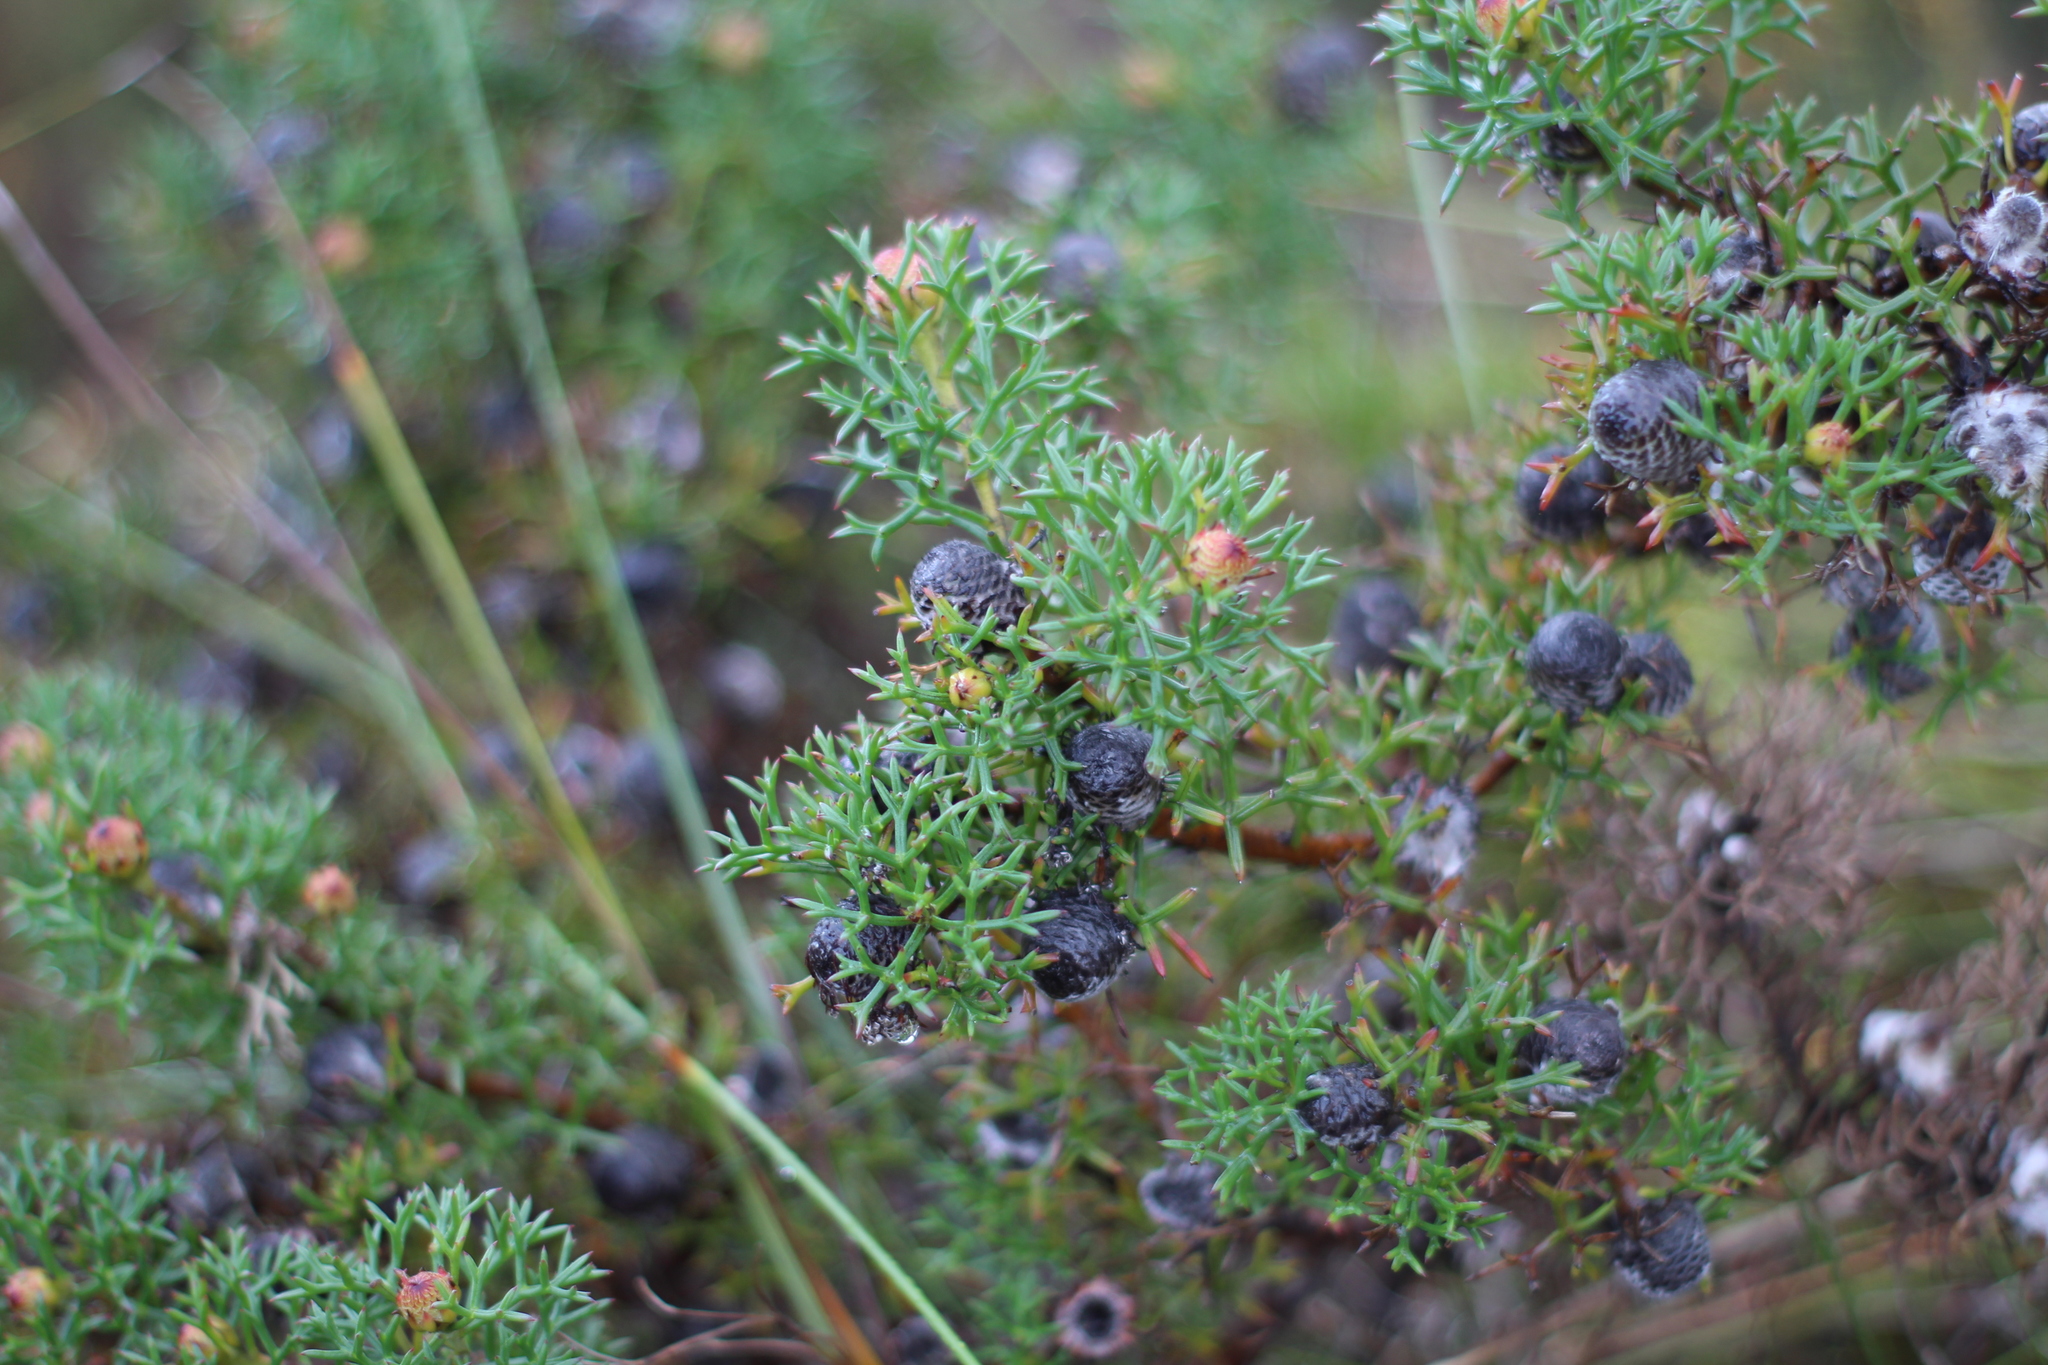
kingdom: Plantae
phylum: Tracheophyta
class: Magnoliopsida
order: Proteales
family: Proteaceae
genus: Petrophile
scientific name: Petrophile rigida
